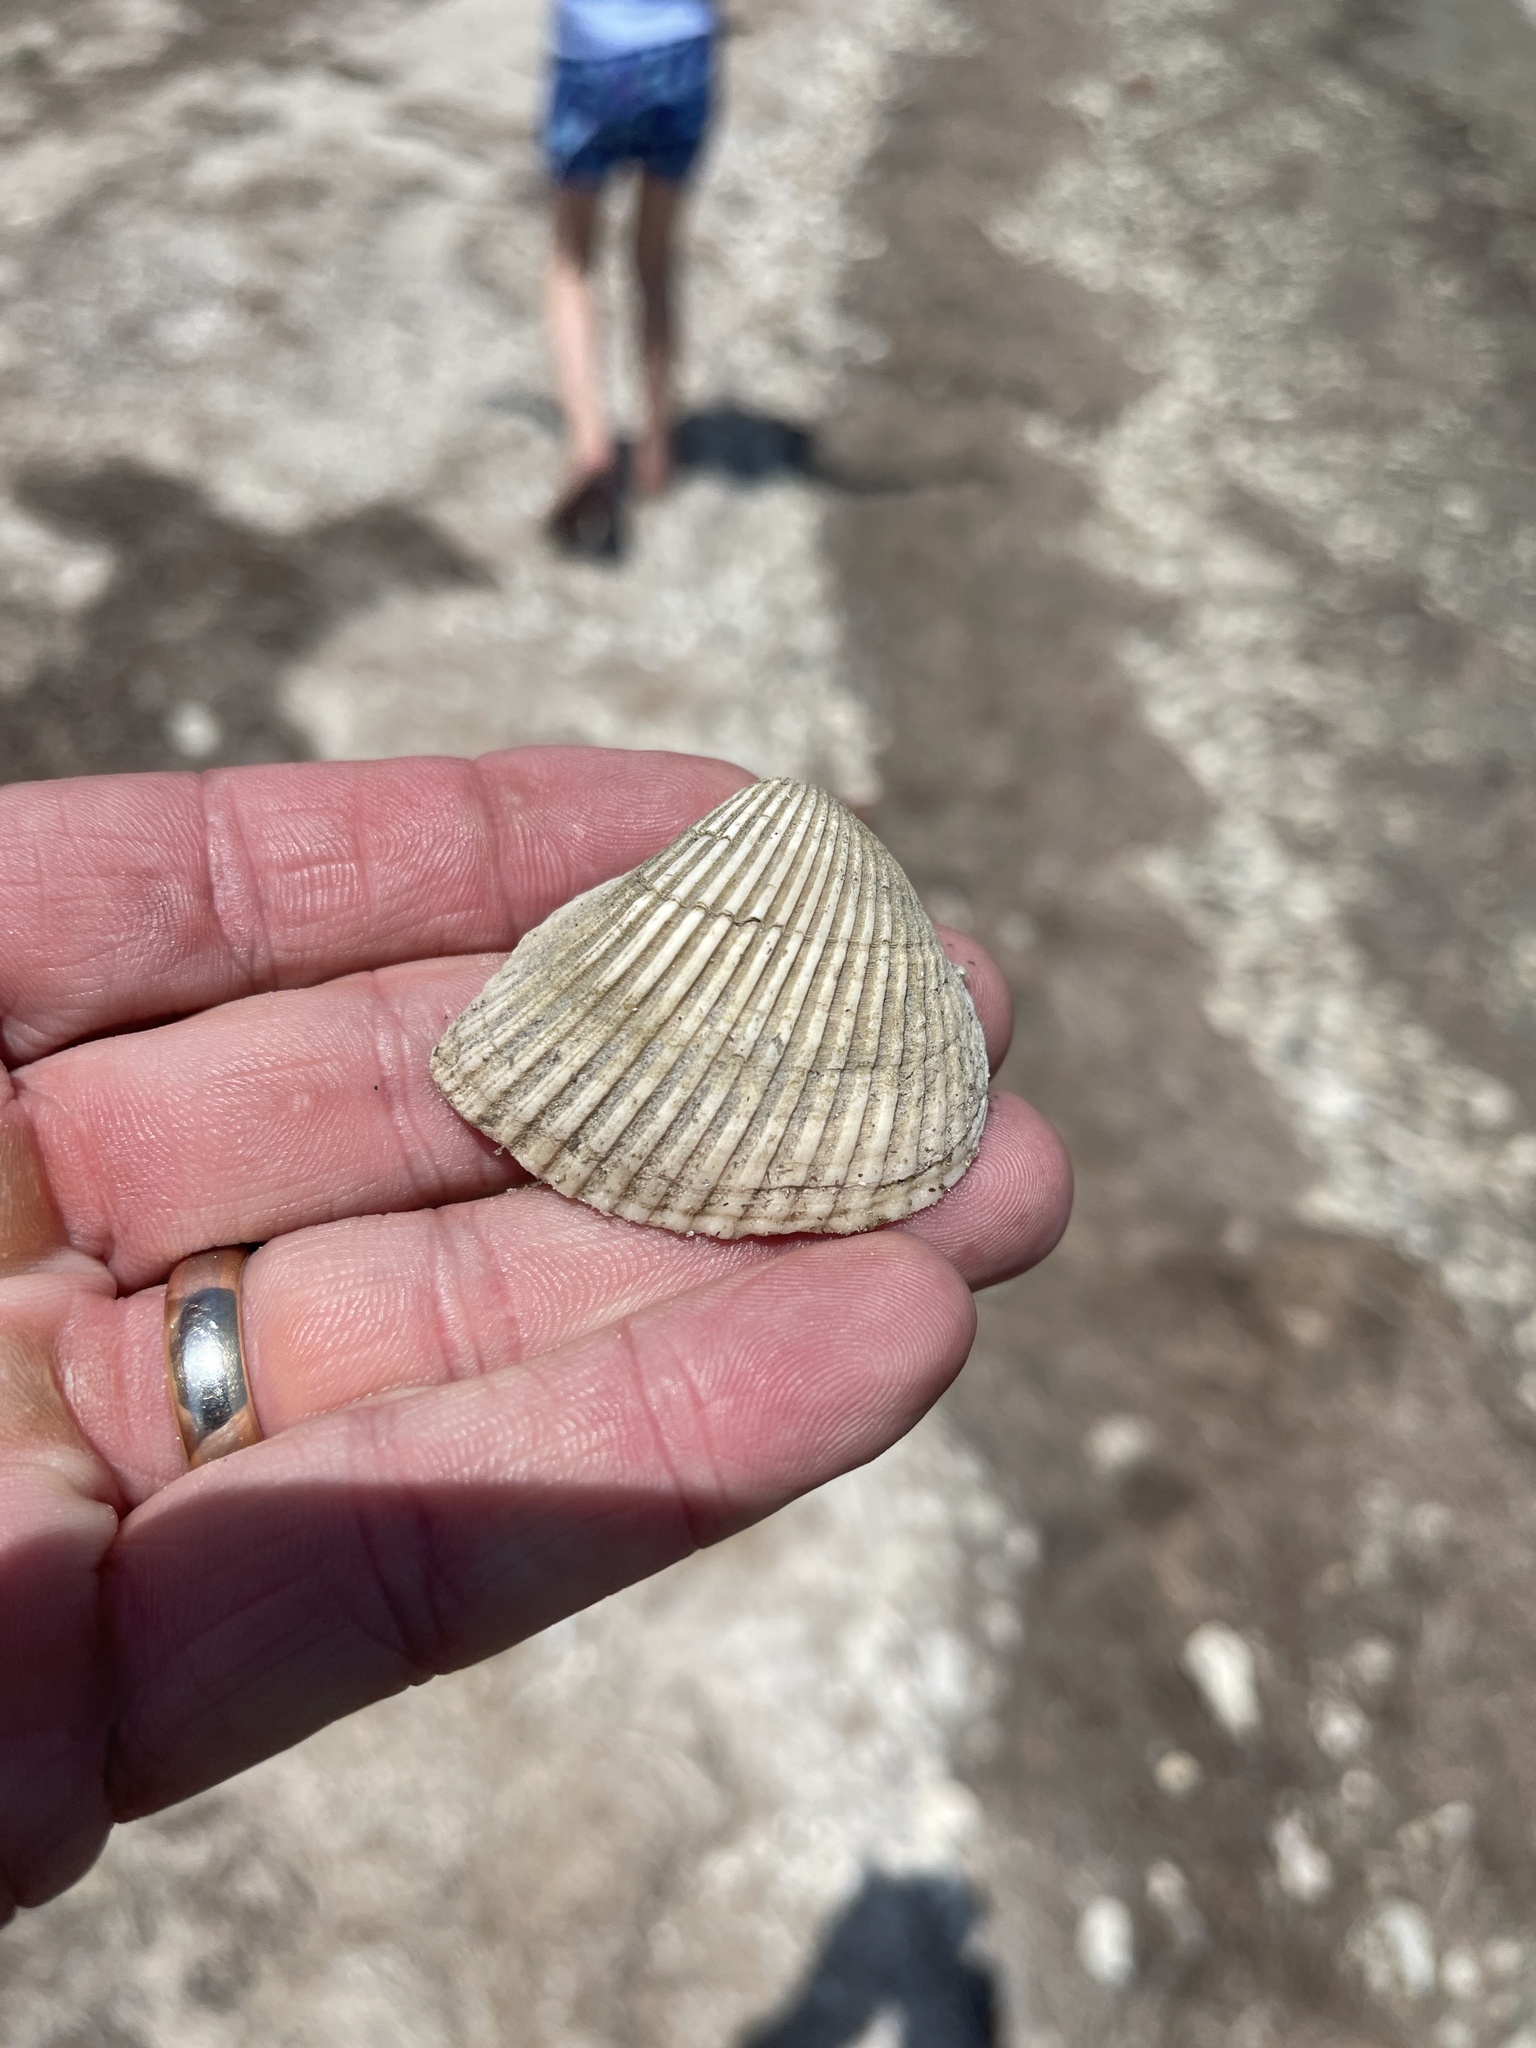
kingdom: Animalia
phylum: Mollusca
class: Bivalvia
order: Arcida
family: Noetiidae
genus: Noetia
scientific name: Noetia ponderosa
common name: Ponderous ark
